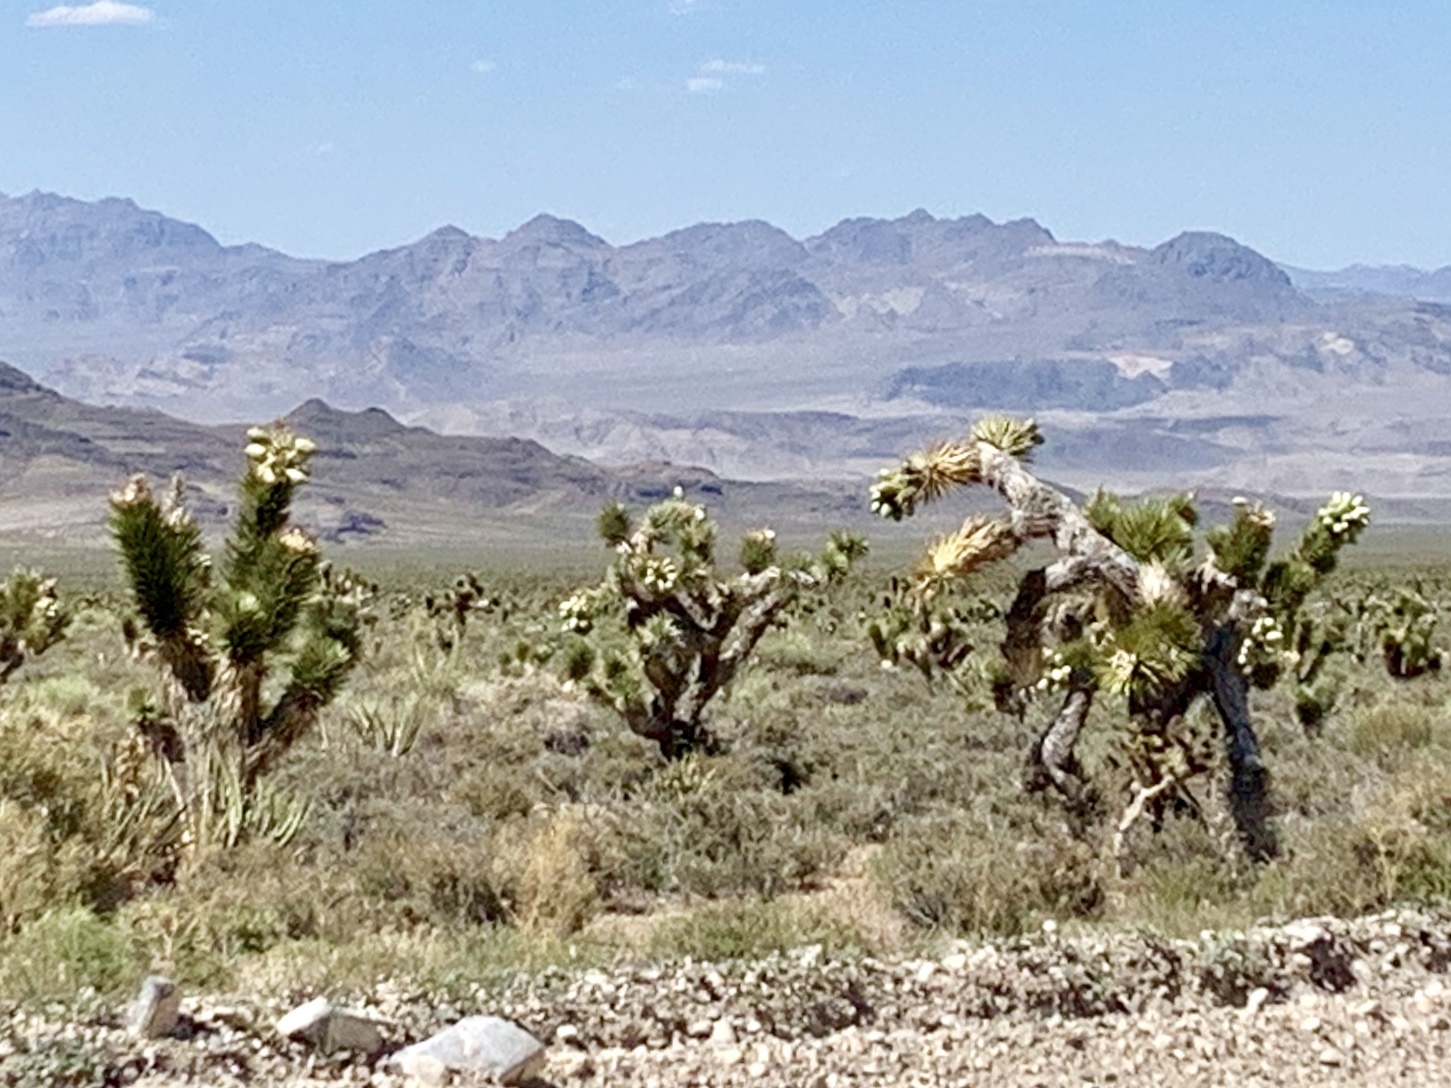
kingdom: Plantae
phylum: Tracheophyta
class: Liliopsida
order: Asparagales
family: Asparagaceae
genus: Yucca
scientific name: Yucca brevifolia
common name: Joshua tree
